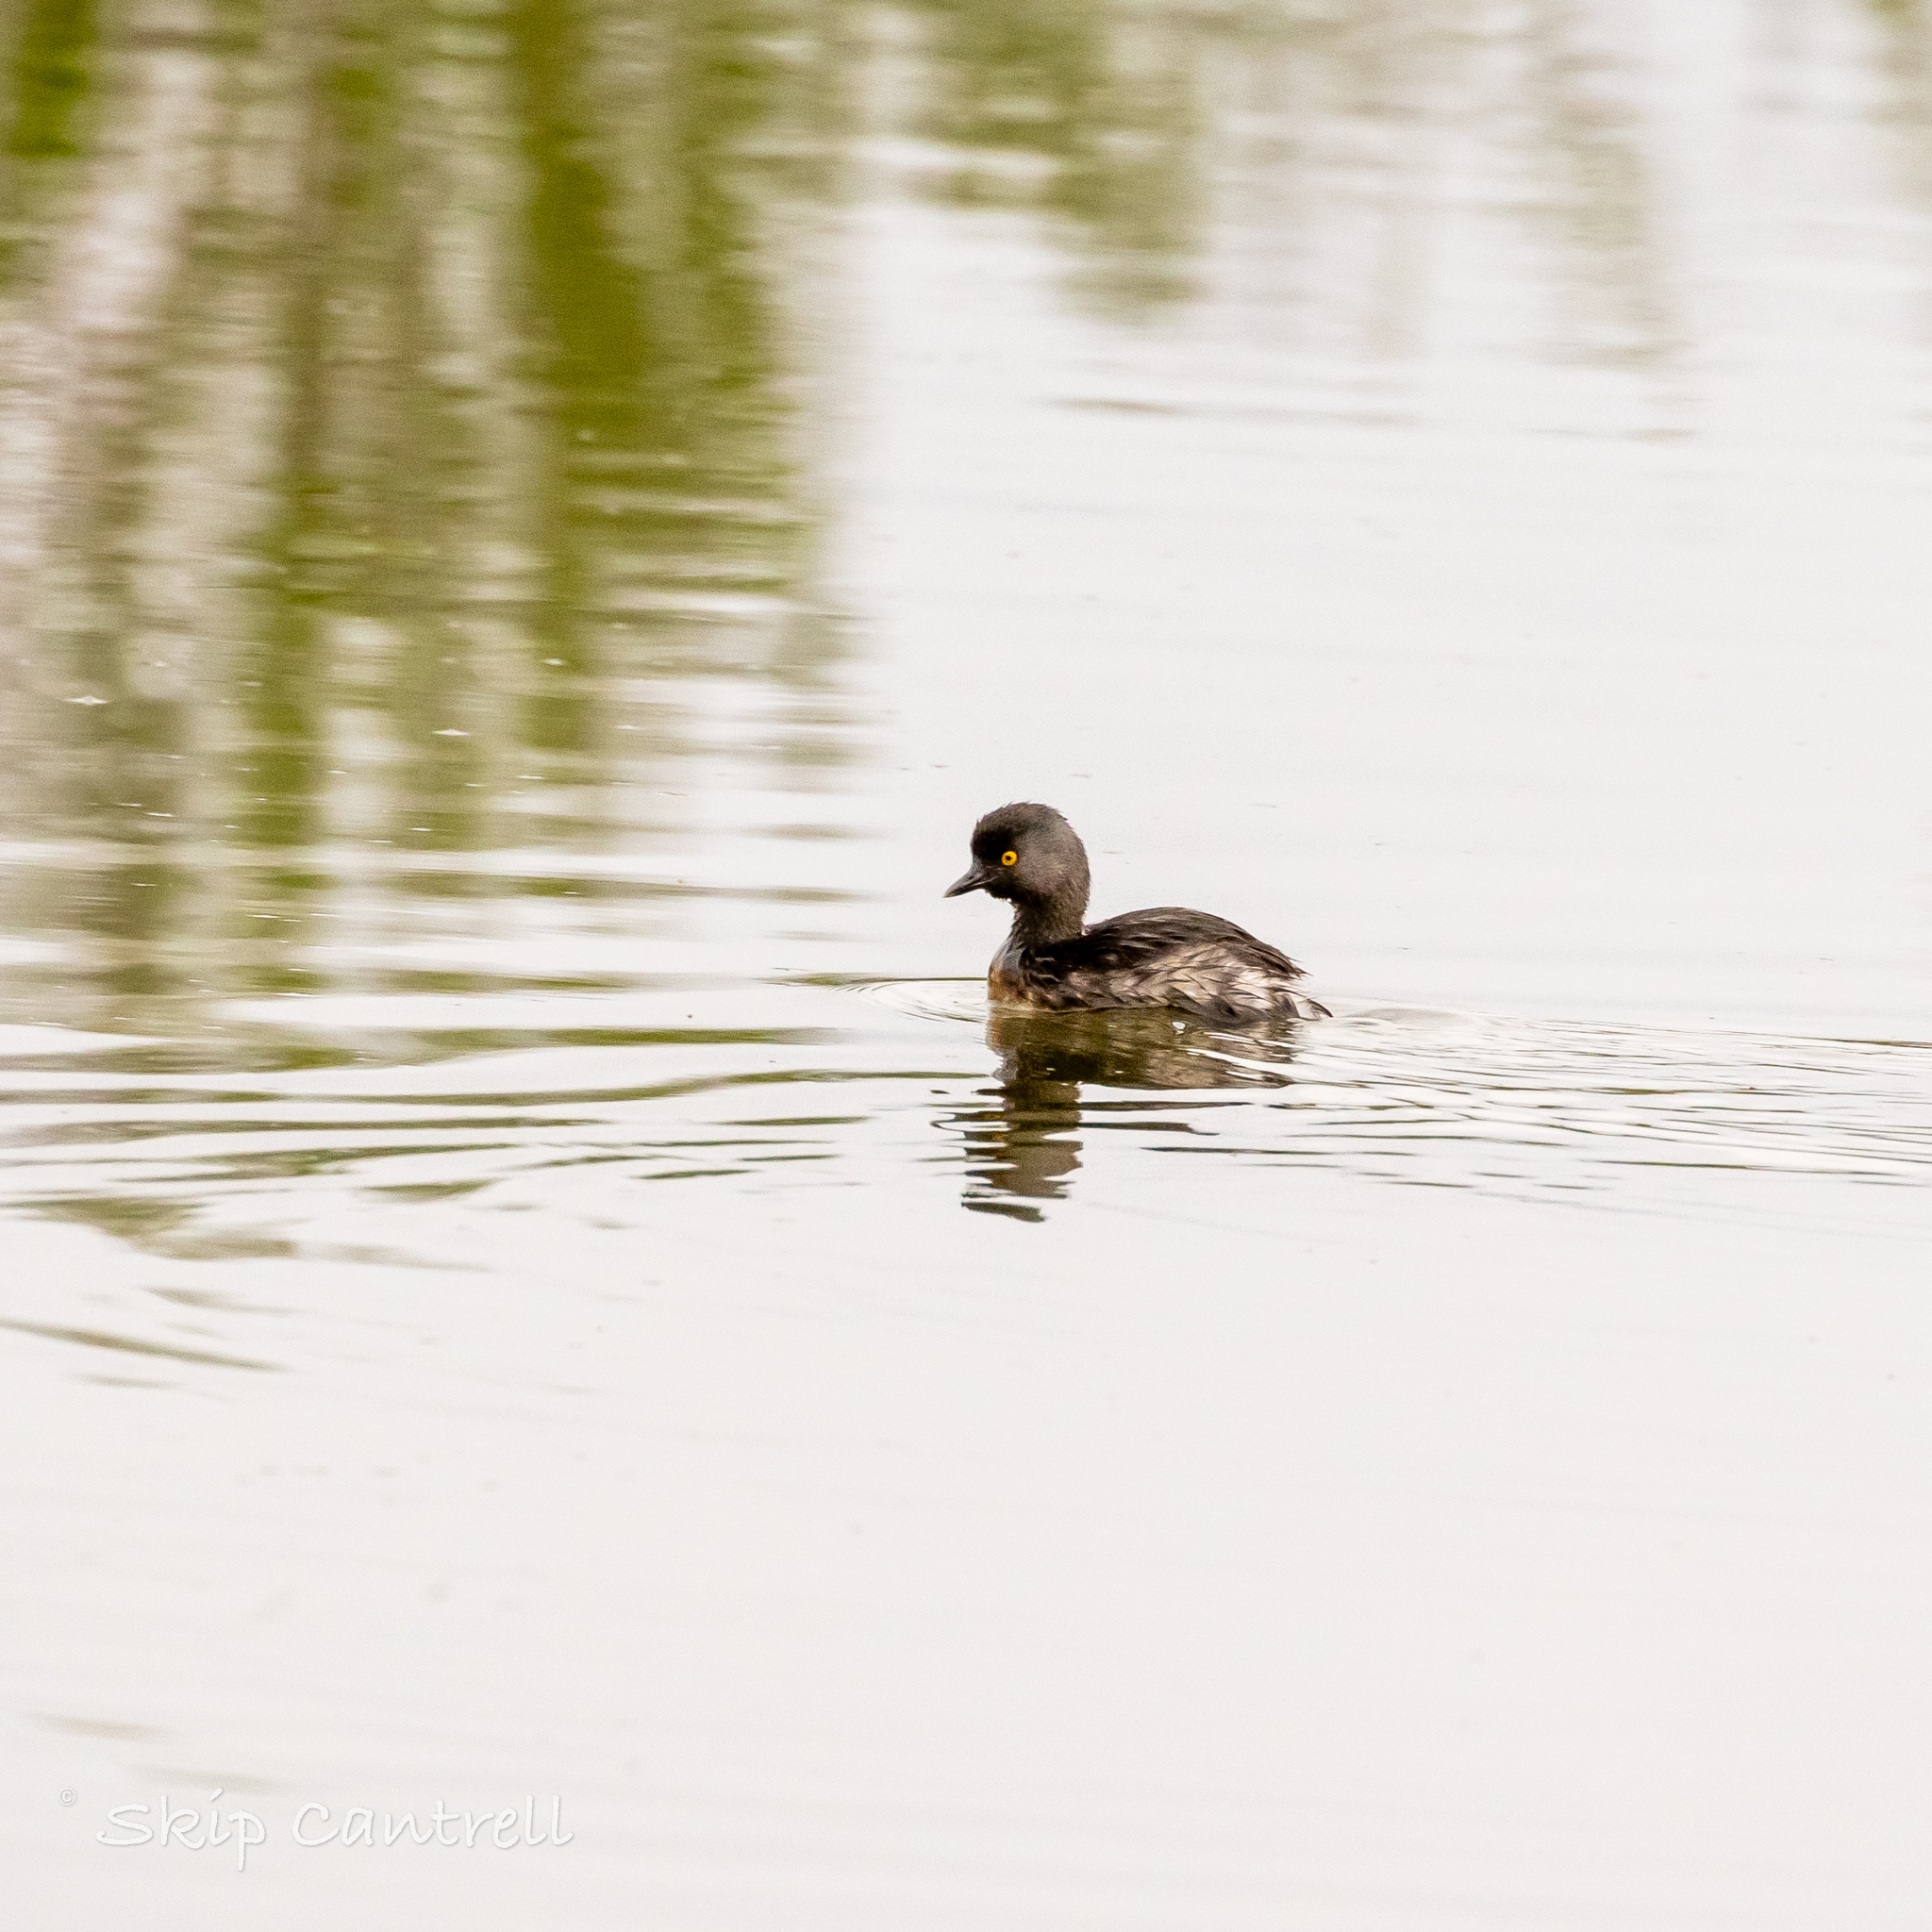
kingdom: Animalia
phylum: Chordata
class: Aves
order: Podicipediformes
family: Podicipedidae
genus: Tachybaptus
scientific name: Tachybaptus dominicus
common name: Least grebe
